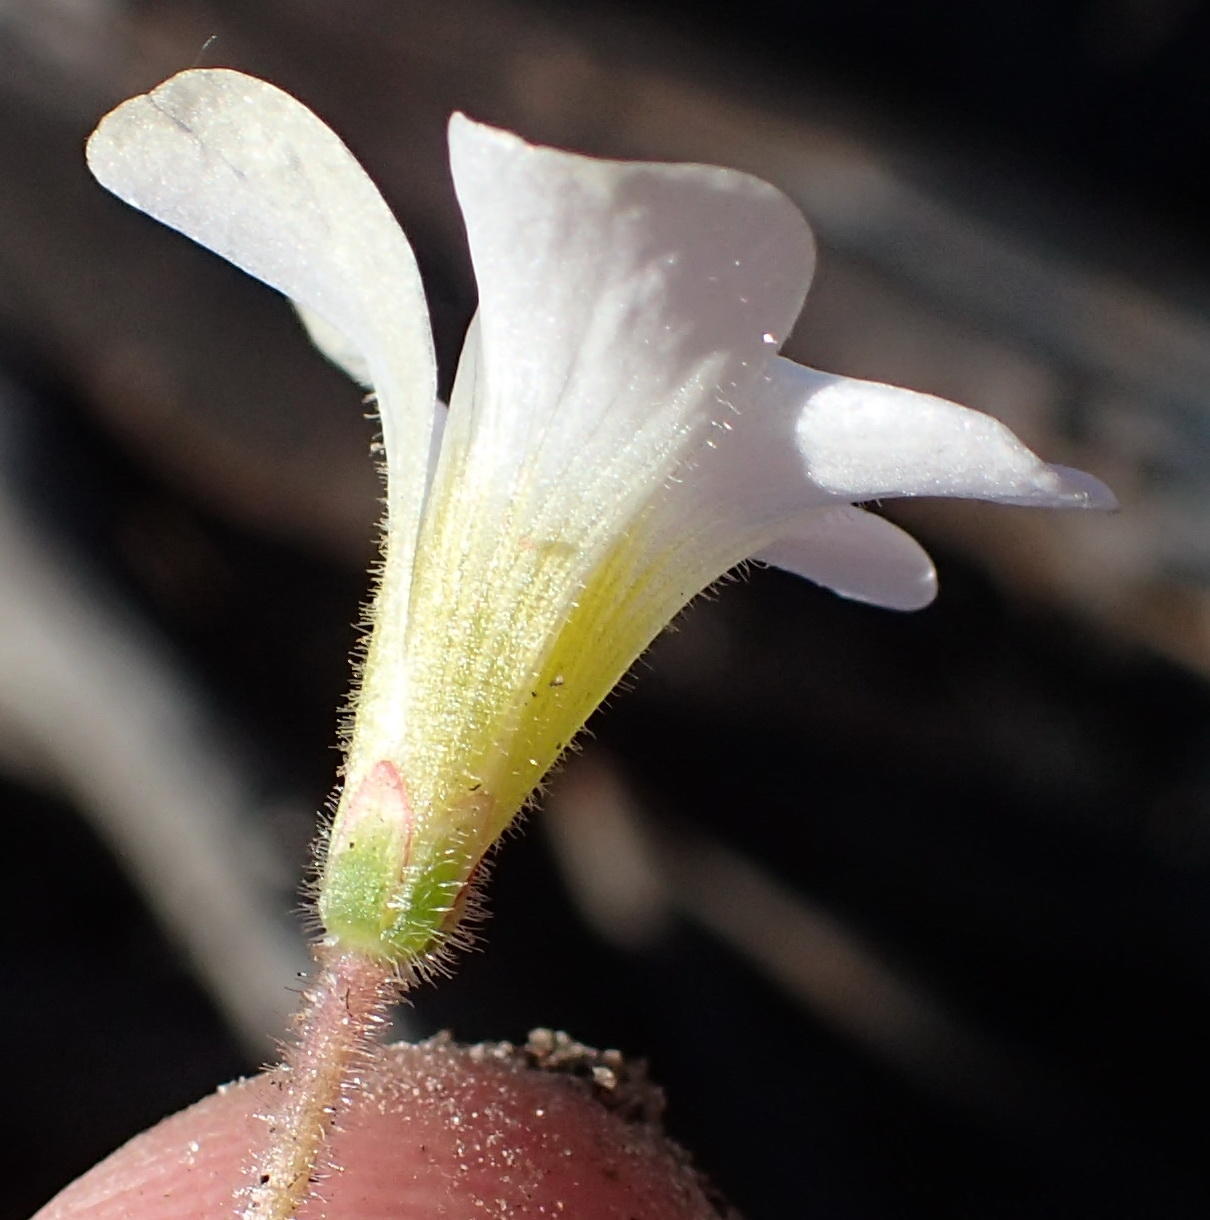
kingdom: Plantae
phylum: Tracheophyta
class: Magnoliopsida
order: Oxalidales
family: Oxalidaceae
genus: Oxalis
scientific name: Oxalis punctata
